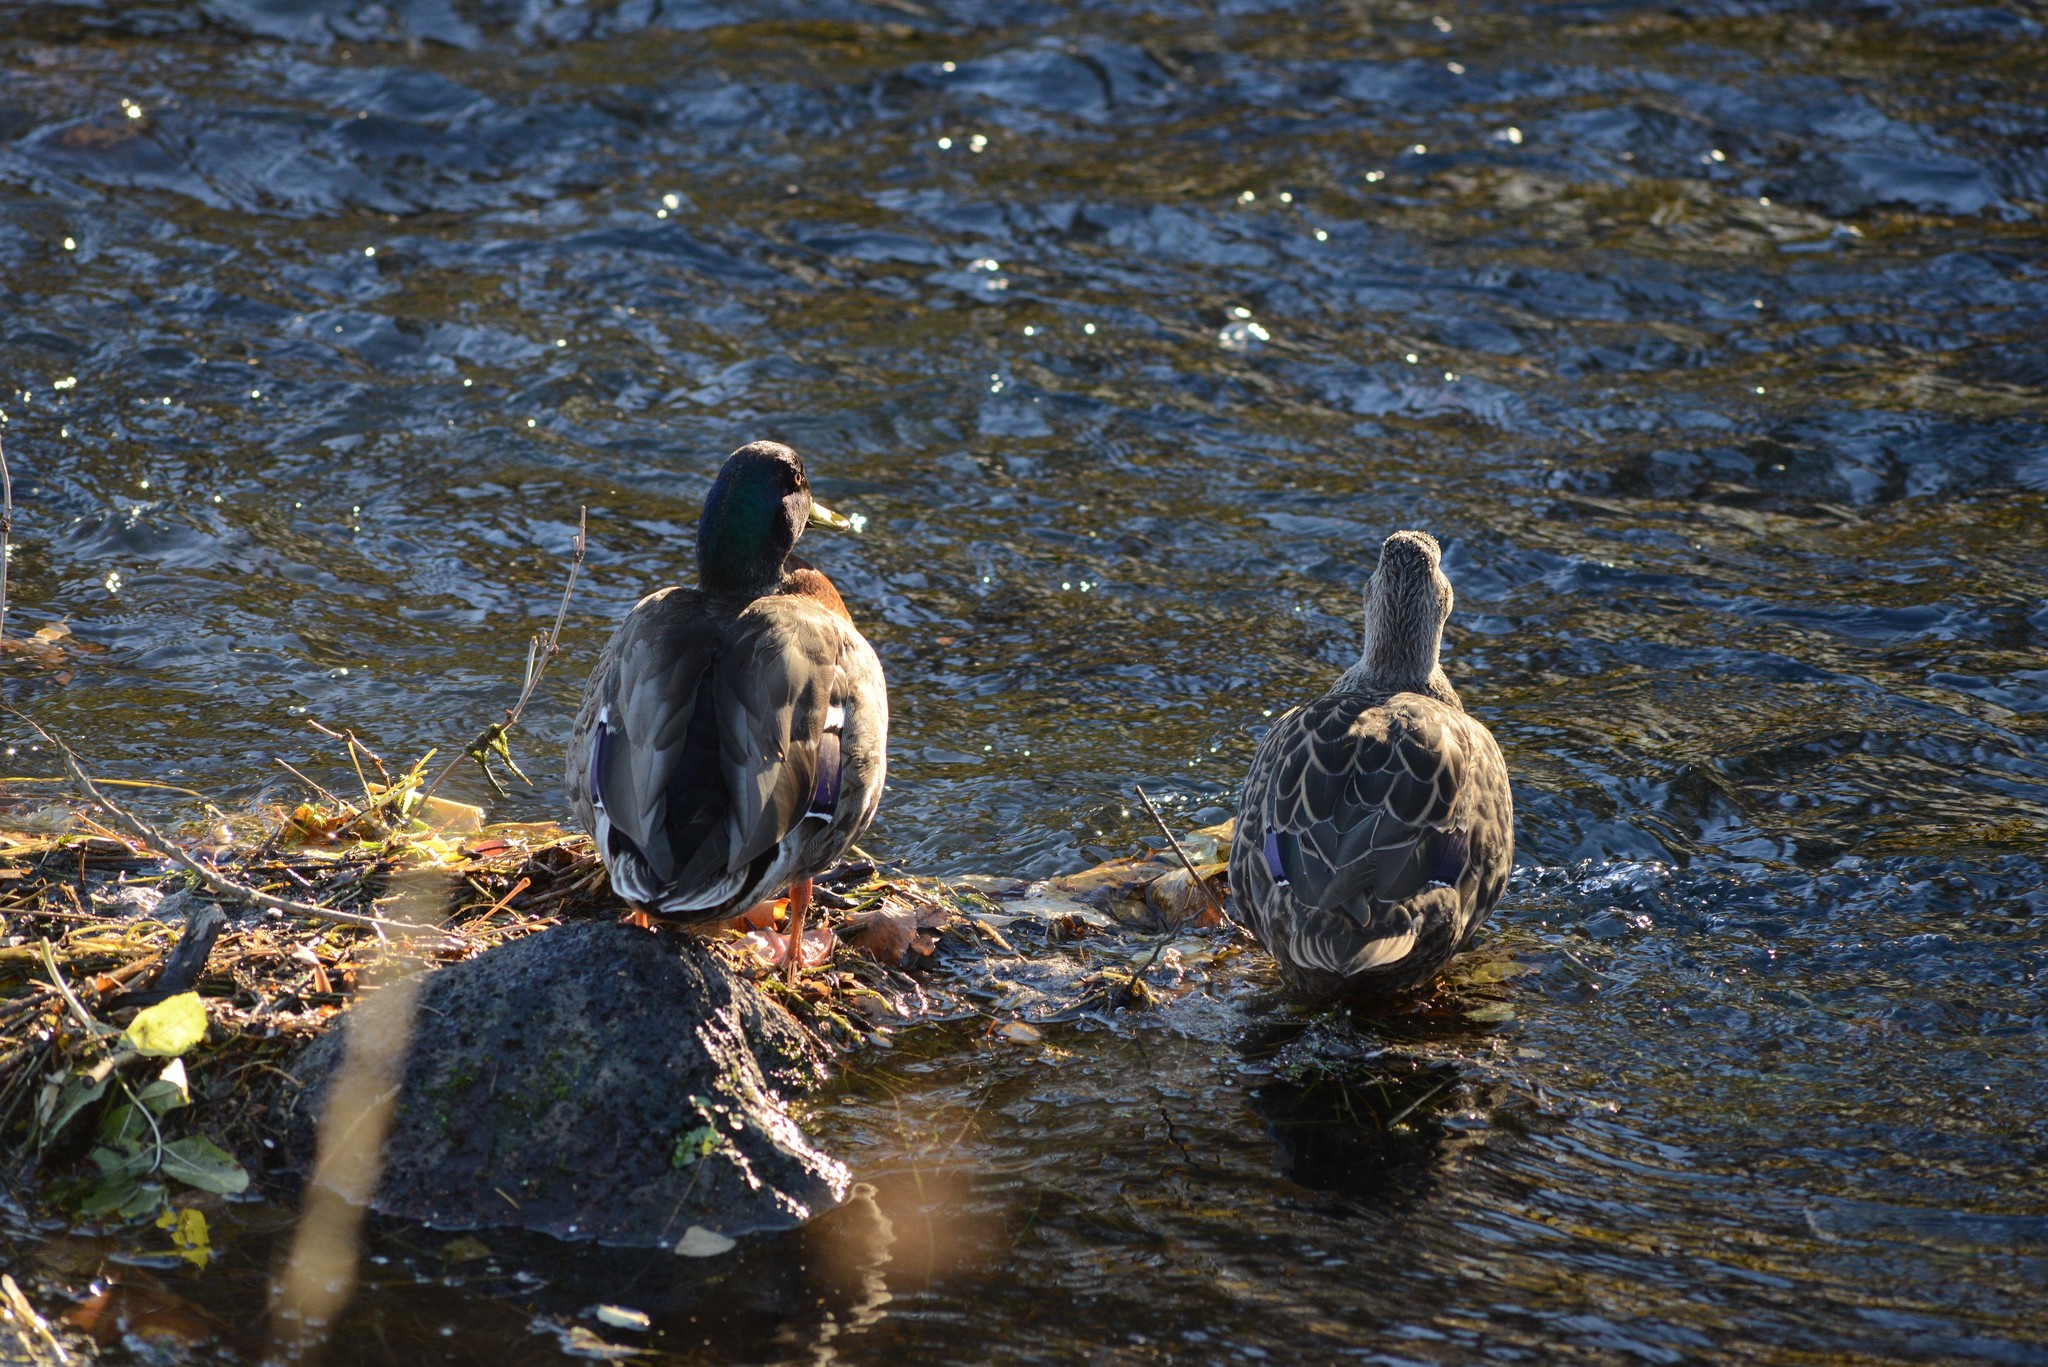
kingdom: Animalia
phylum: Chordata
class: Aves
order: Anseriformes
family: Anatidae
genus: Anas
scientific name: Anas platyrhynchos
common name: Mallard
